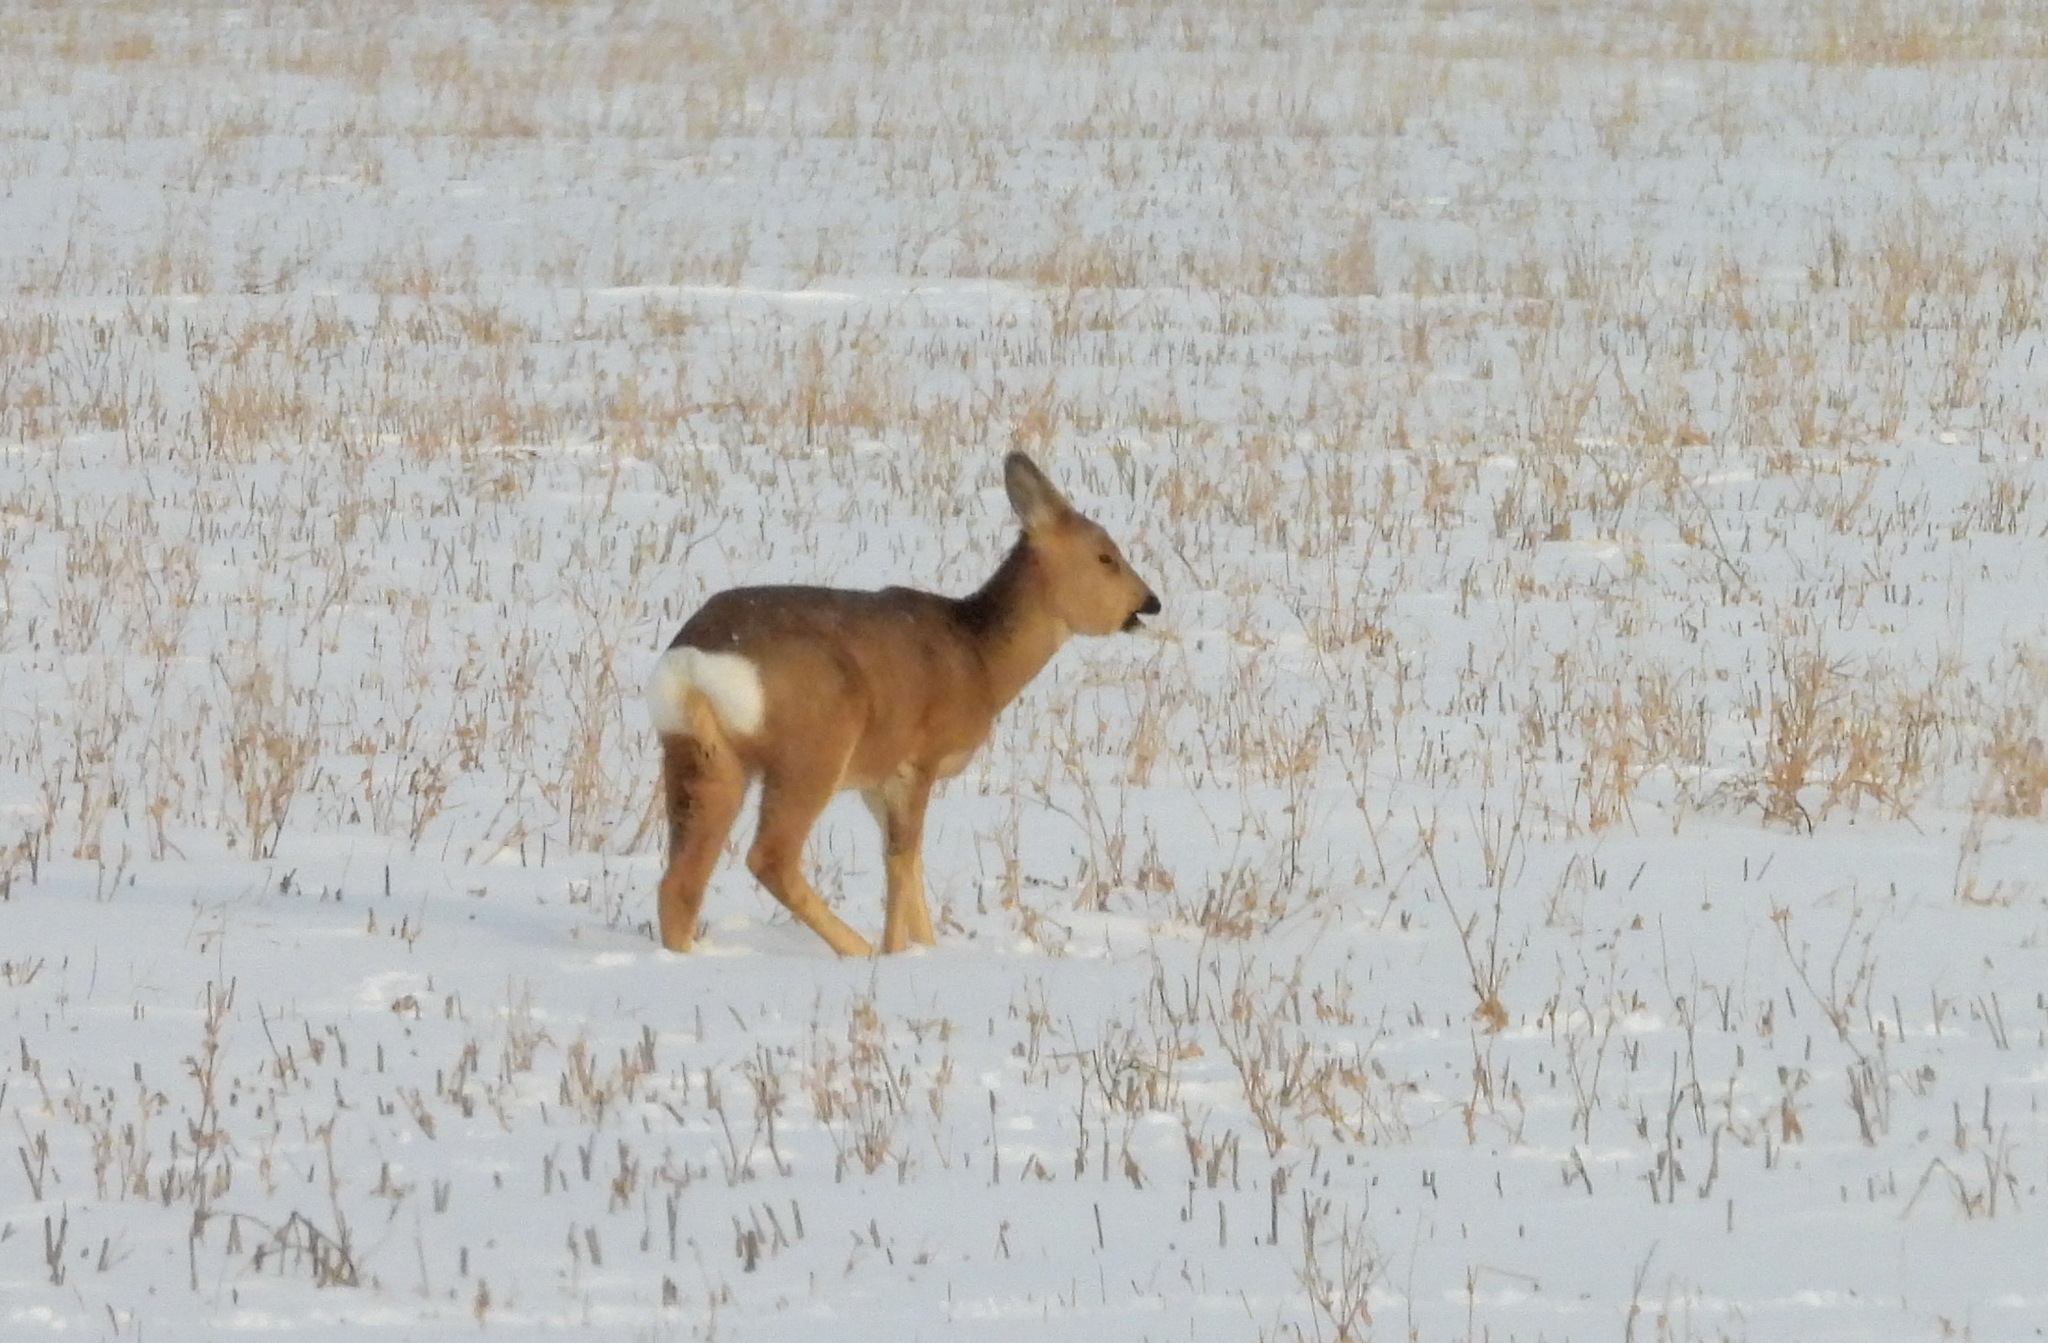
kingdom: Animalia
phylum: Chordata
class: Mammalia
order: Artiodactyla
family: Cervidae
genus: Capreolus
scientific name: Capreolus pygargus
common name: Siberian roe
